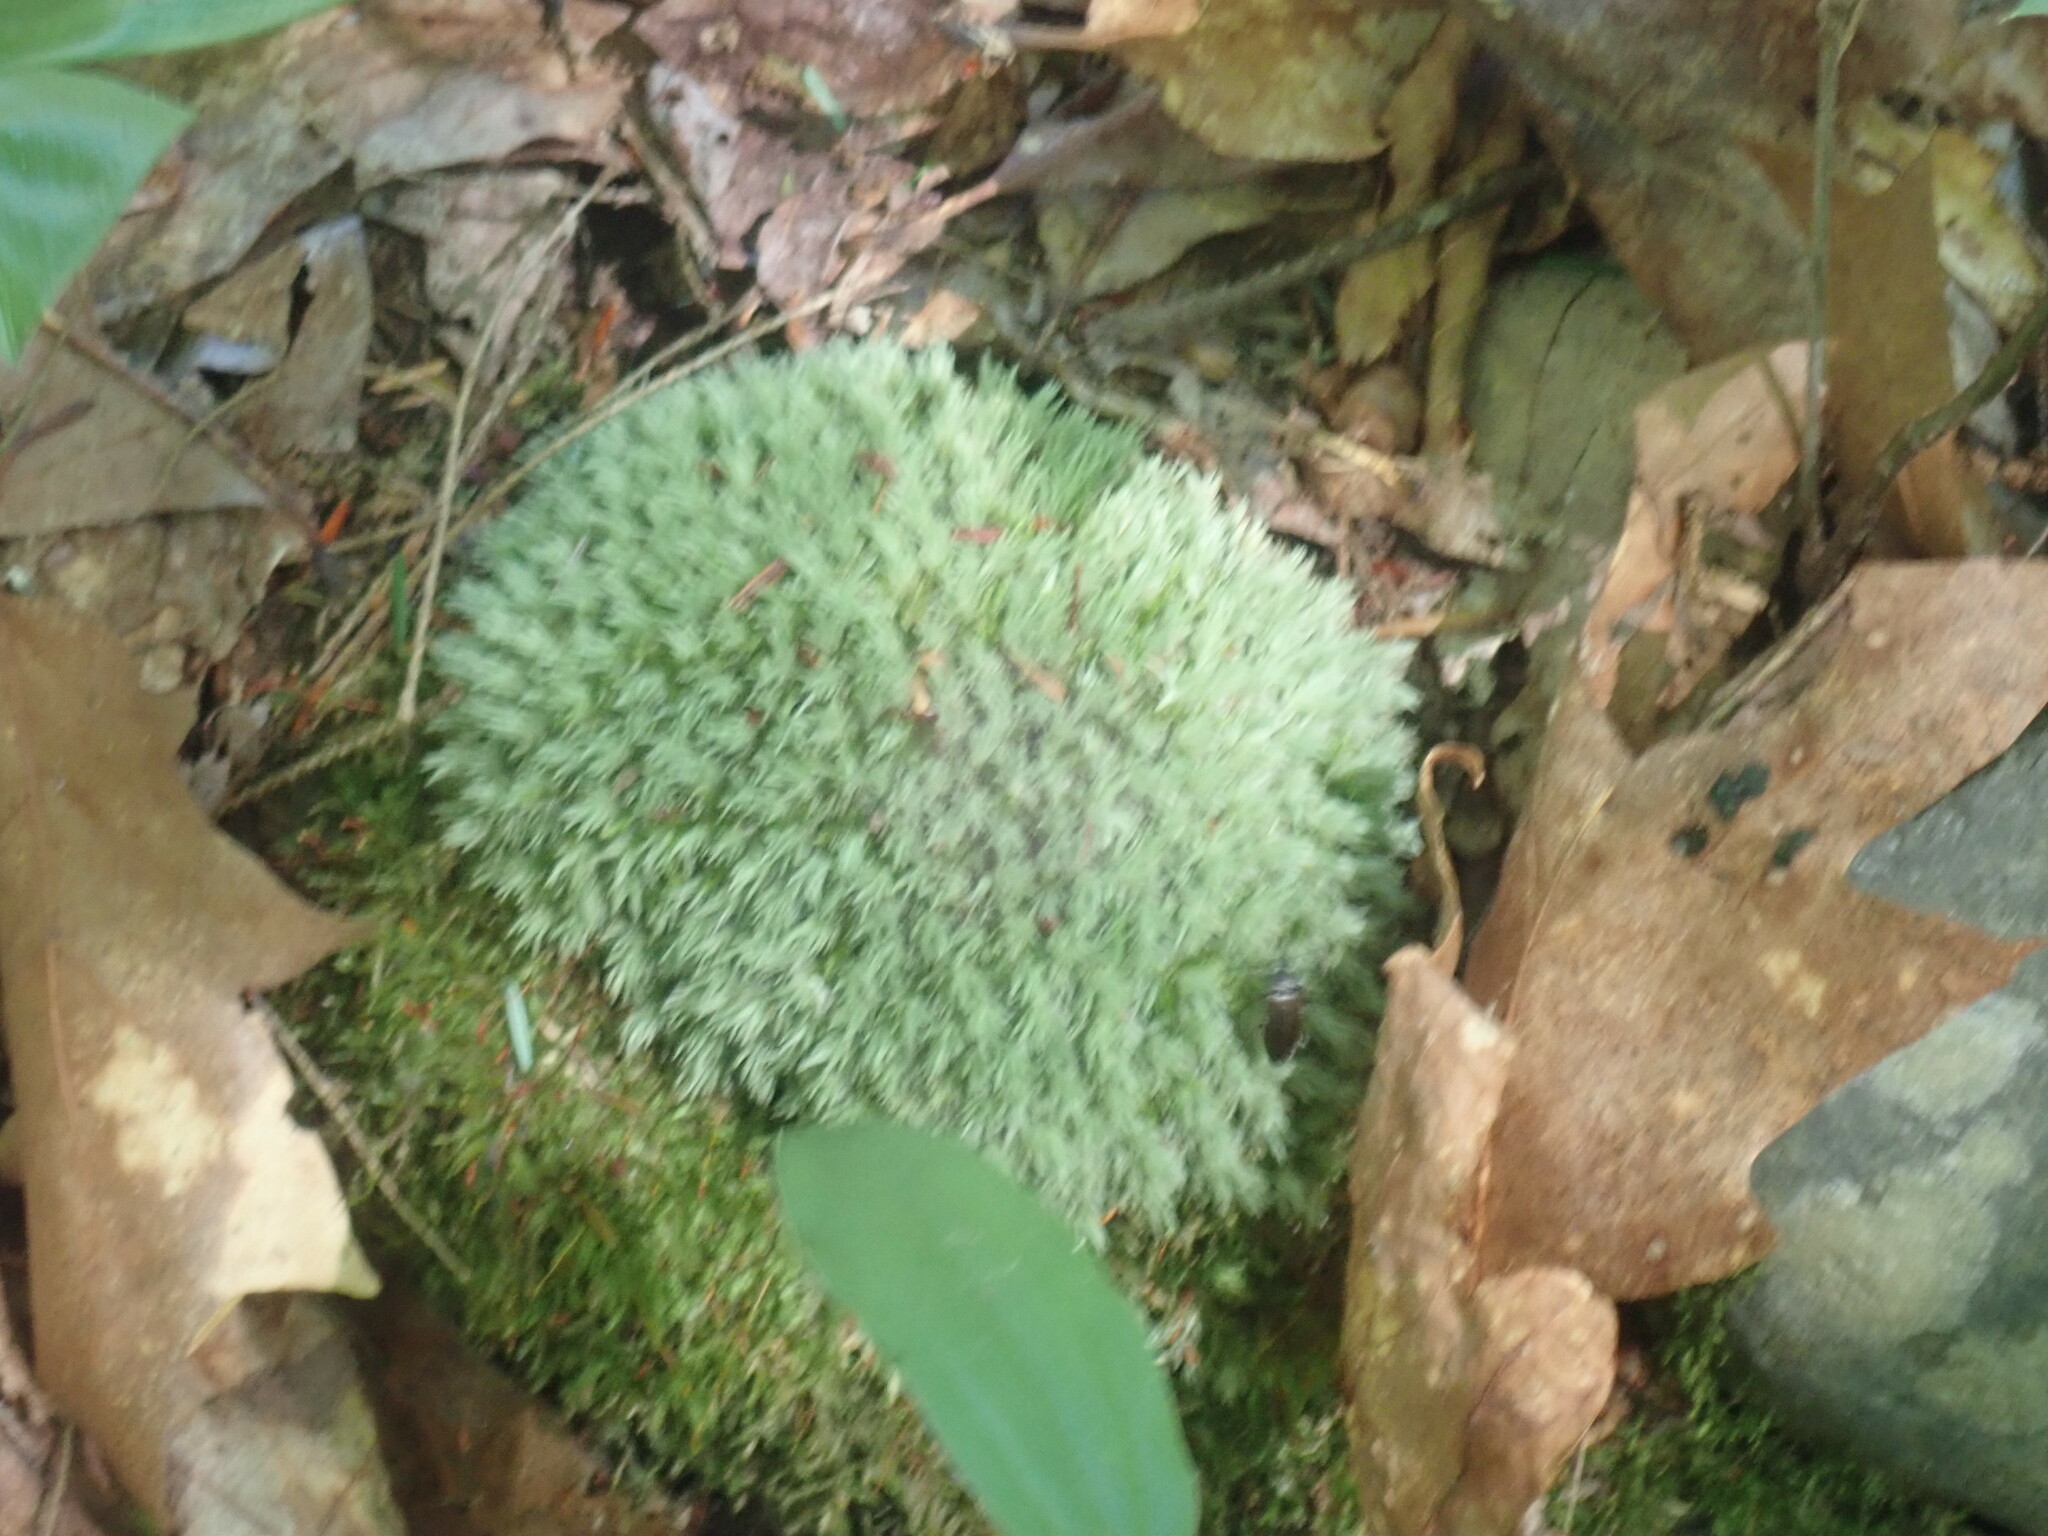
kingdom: Plantae
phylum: Bryophyta
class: Bryopsida
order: Dicranales
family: Leucobryaceae
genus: Leucobryum
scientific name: Leucobryum glaucum
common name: Large white-moss
